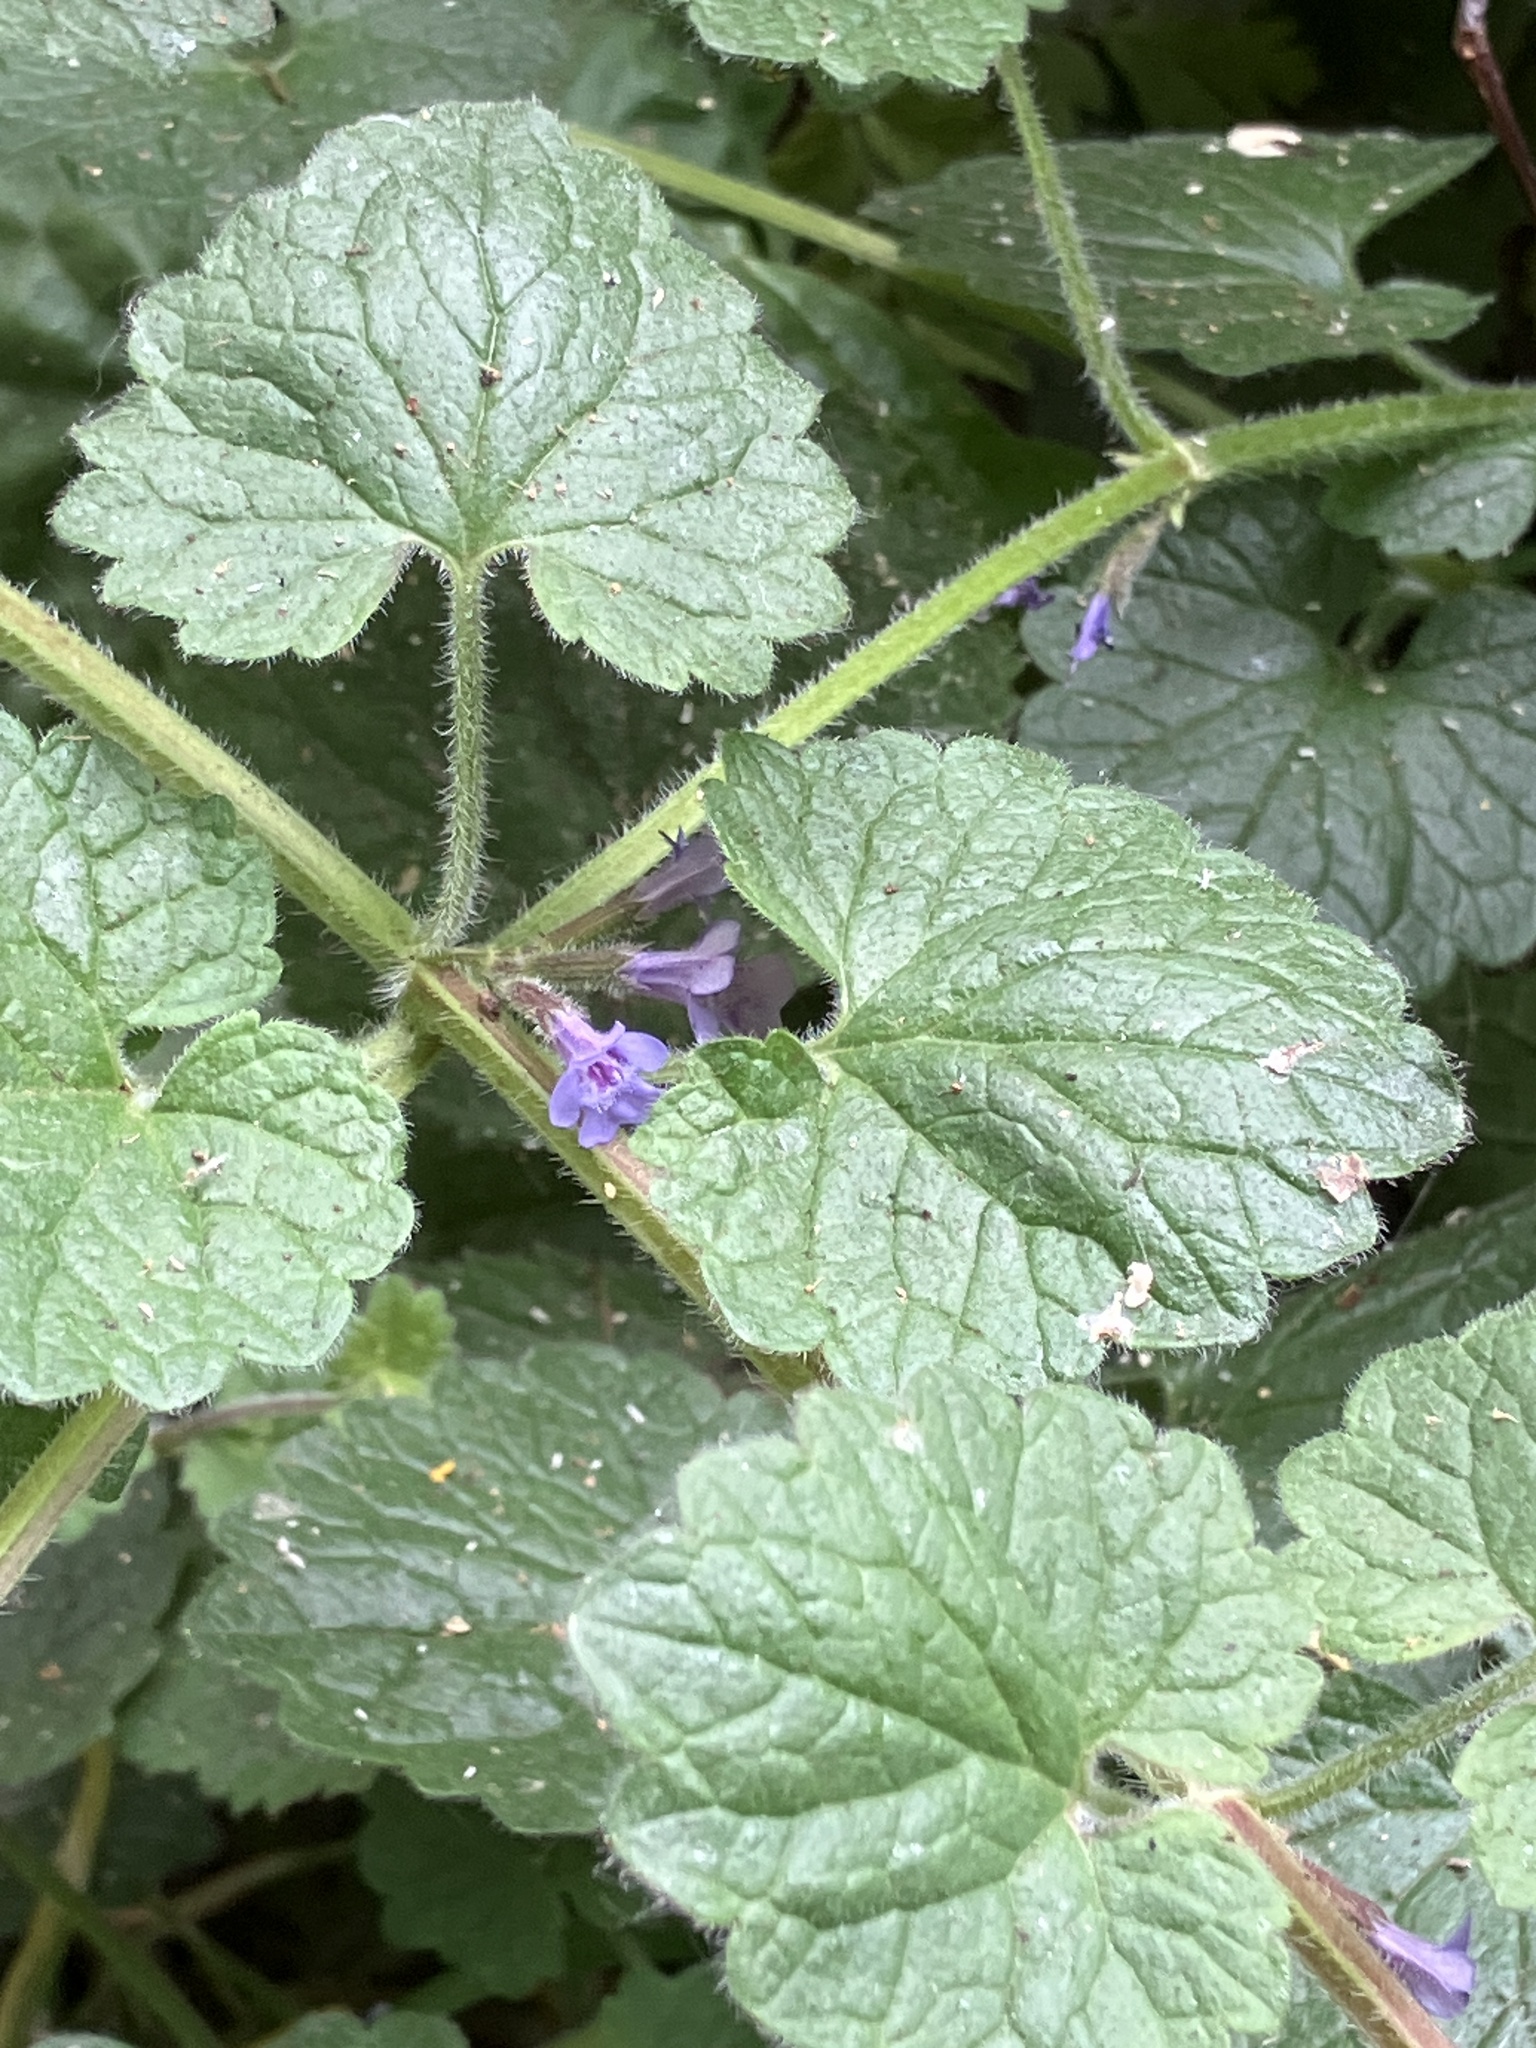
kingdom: Plantae
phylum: Tracheophyta
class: Magnoliopsida
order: Lamiales
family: Lamiaceae
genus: Glechoma
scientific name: Glechoma hederacea
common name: Ground ivy
